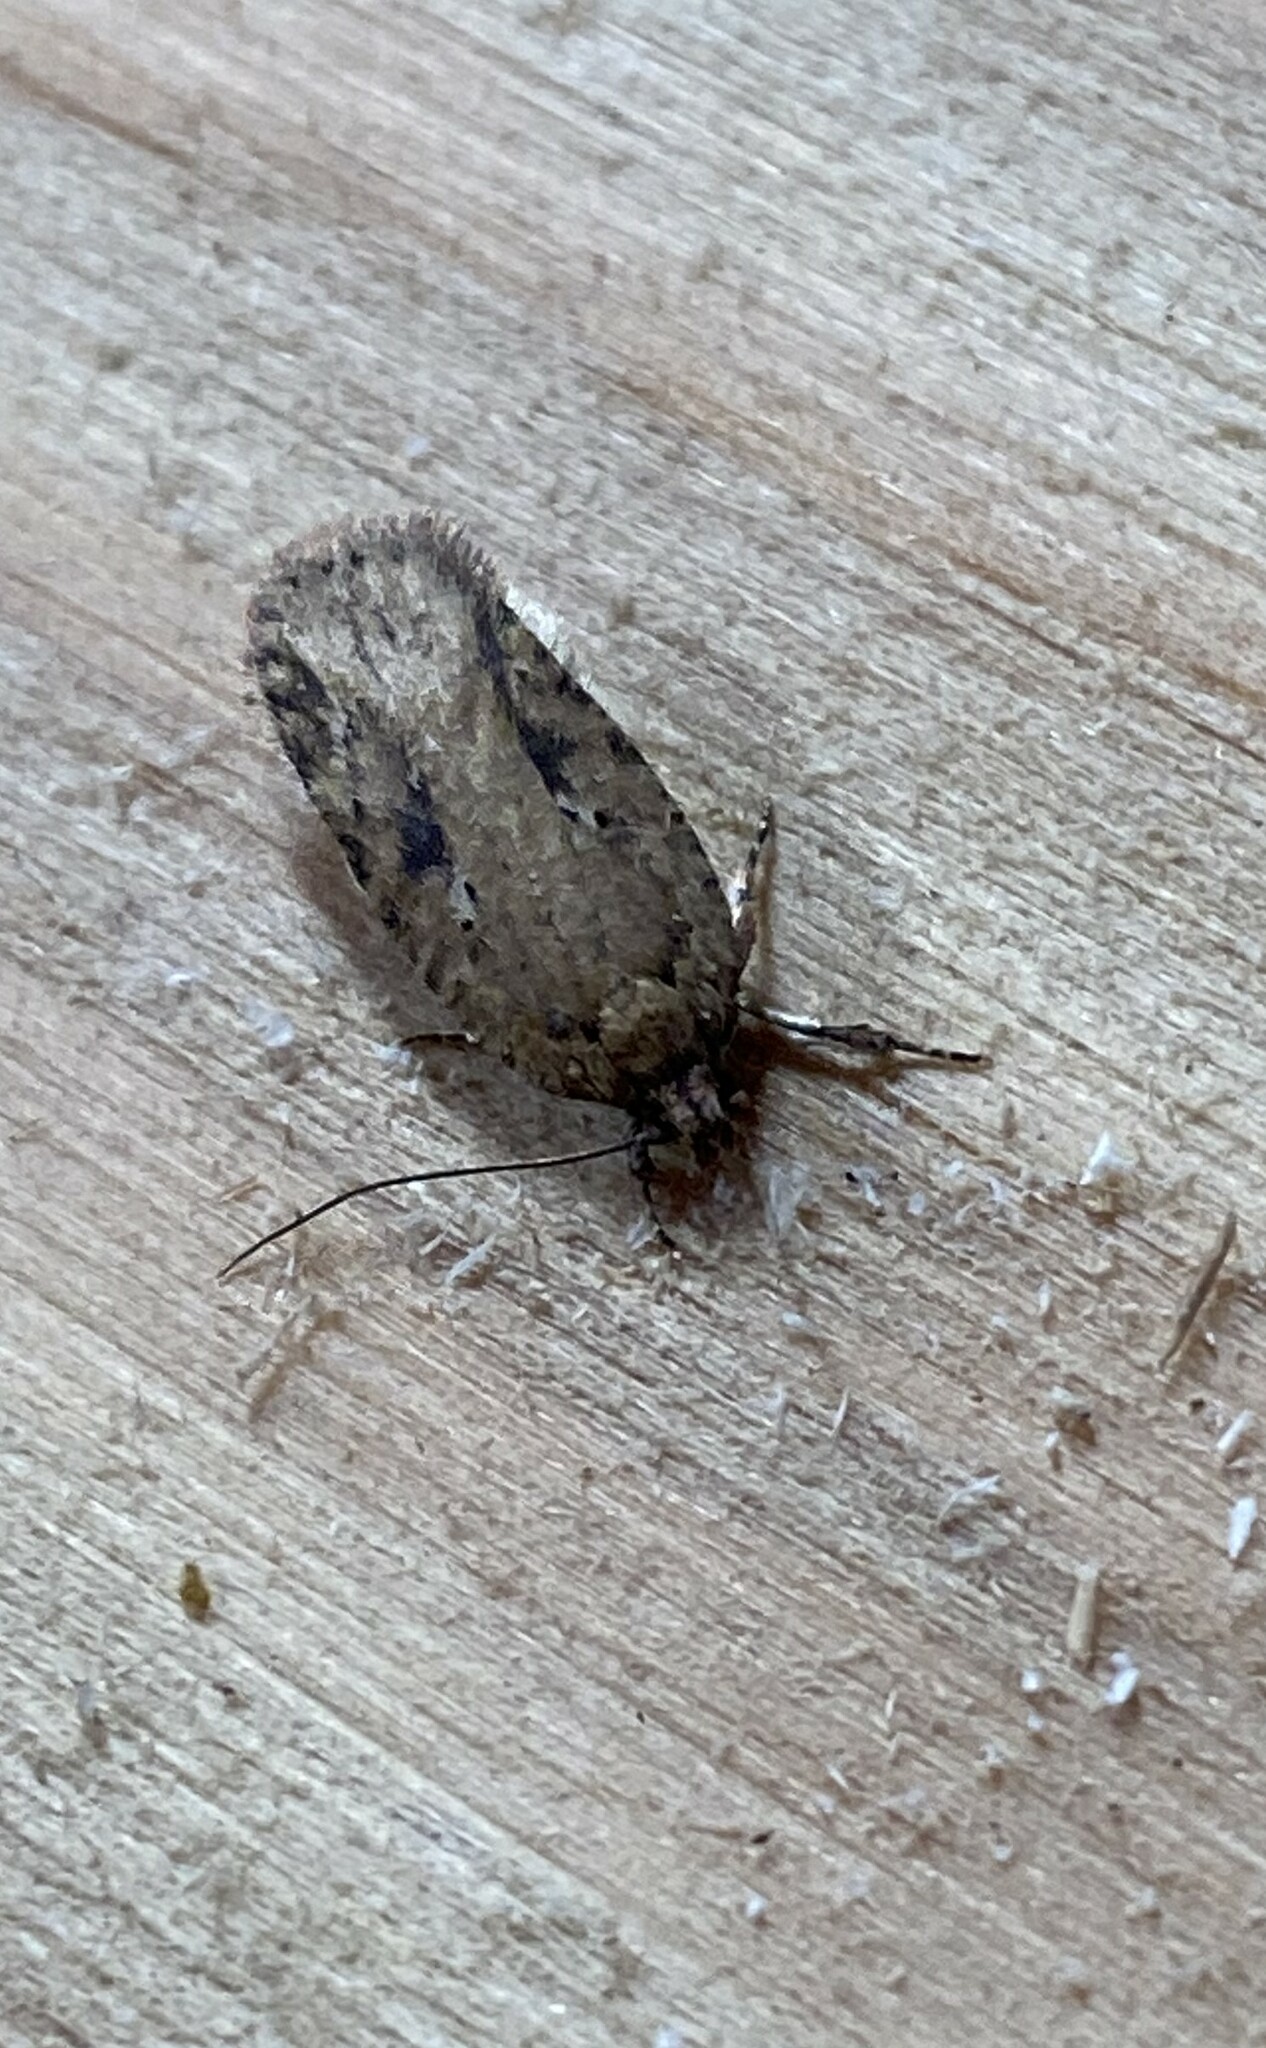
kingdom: Animalia
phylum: Arthropoda
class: Insecta
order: Lepidoptera
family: Depressariidae
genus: Agonopterix
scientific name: Agonopterix pulvipennella
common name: Goldenrod leafffolder
